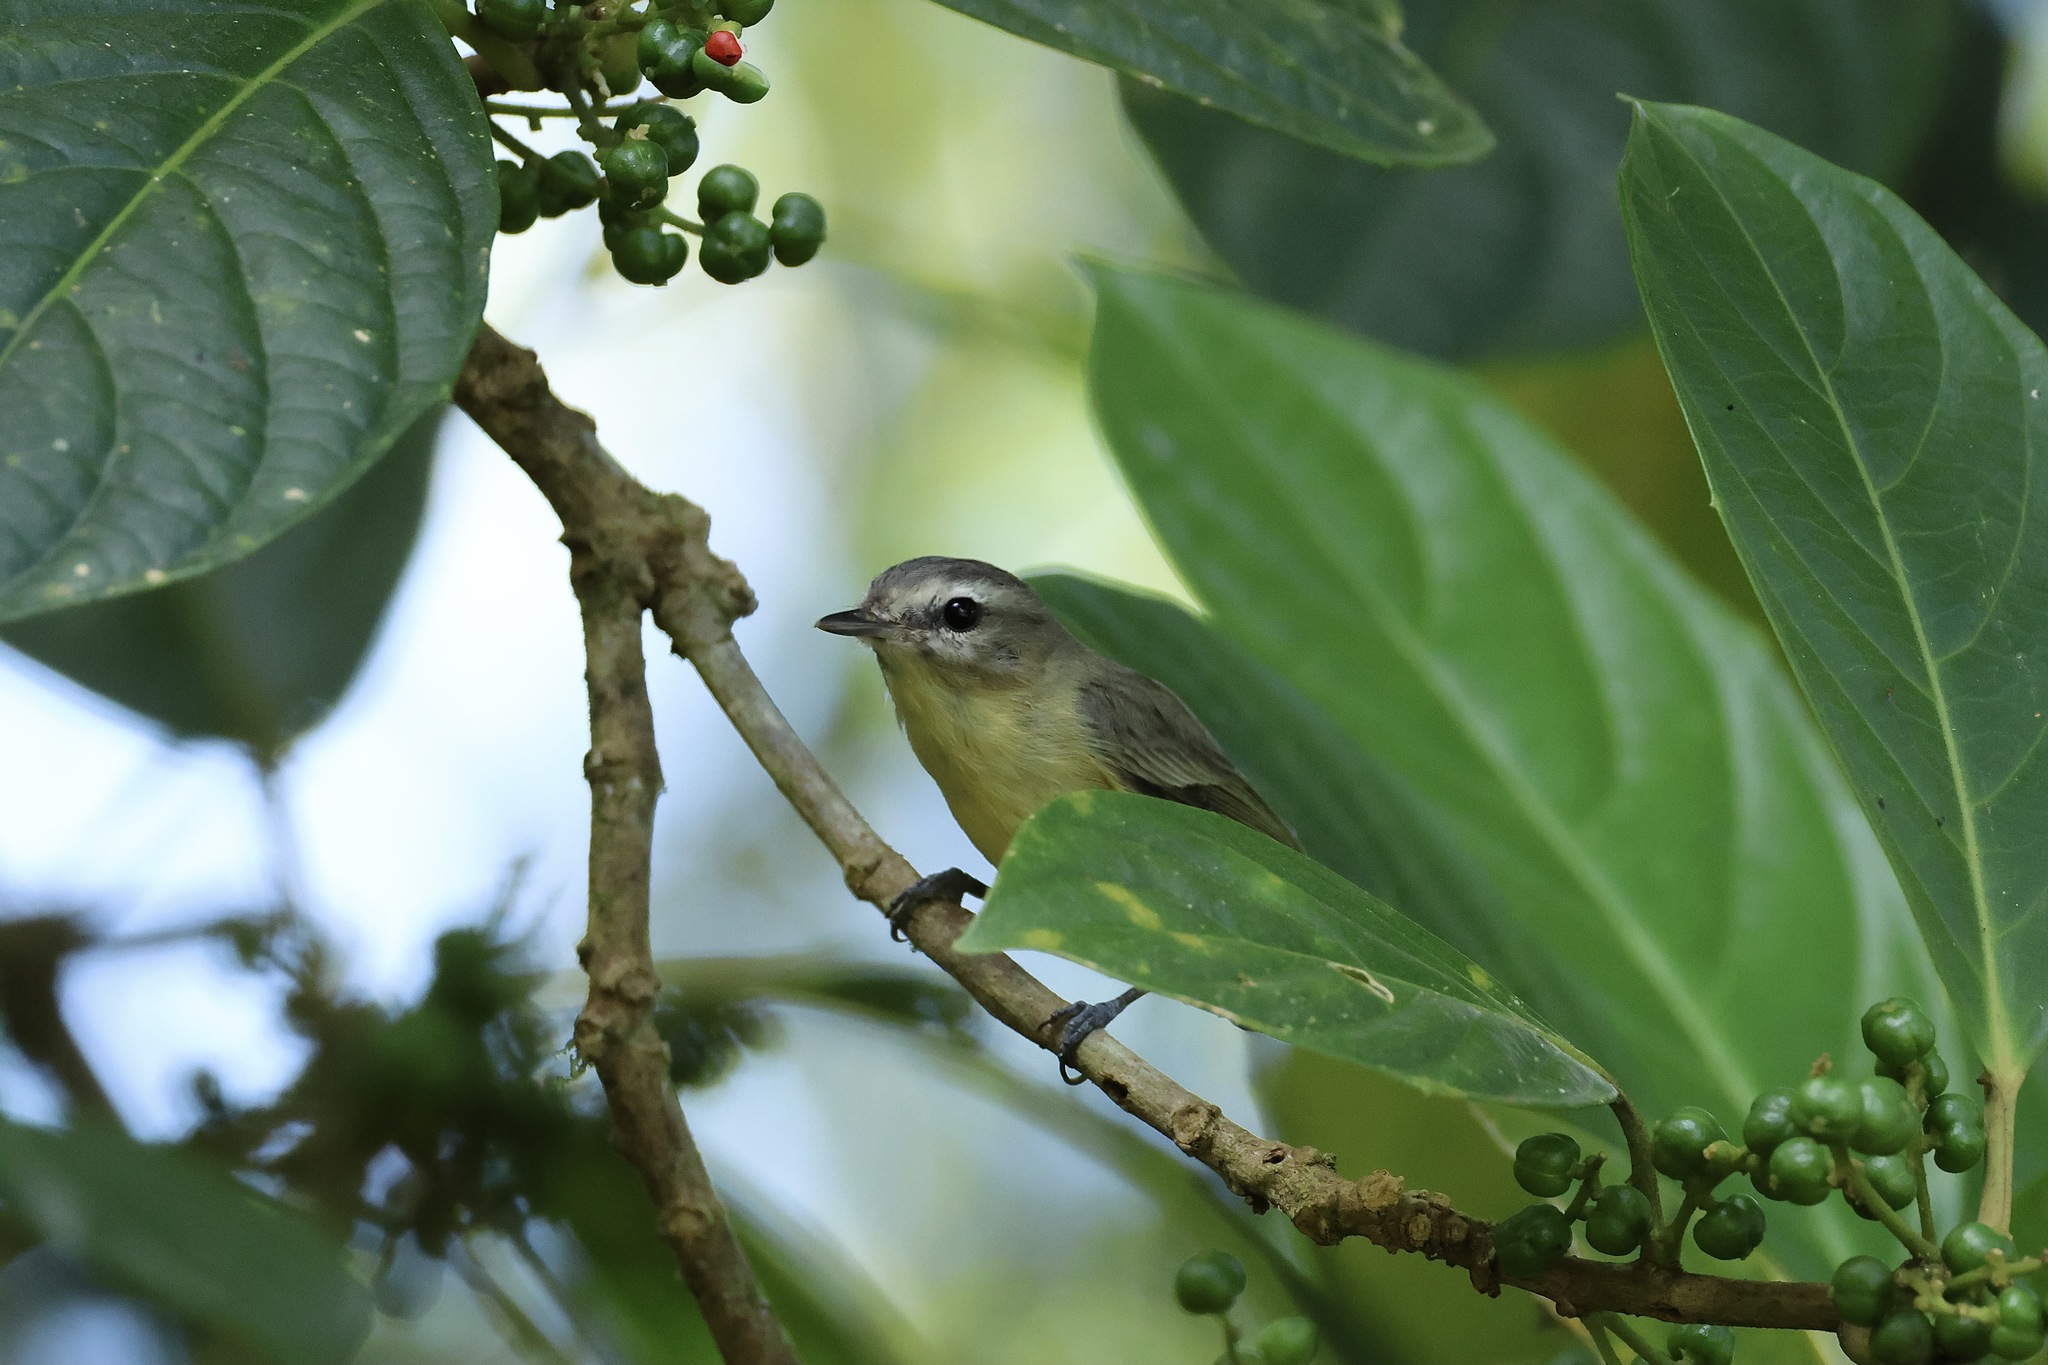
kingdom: Animalia
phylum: Chordata
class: Aves
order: Passeriformes
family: Vireonidae
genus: Vireo
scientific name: Vireo philadelphicus
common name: Philadelphia vireo
